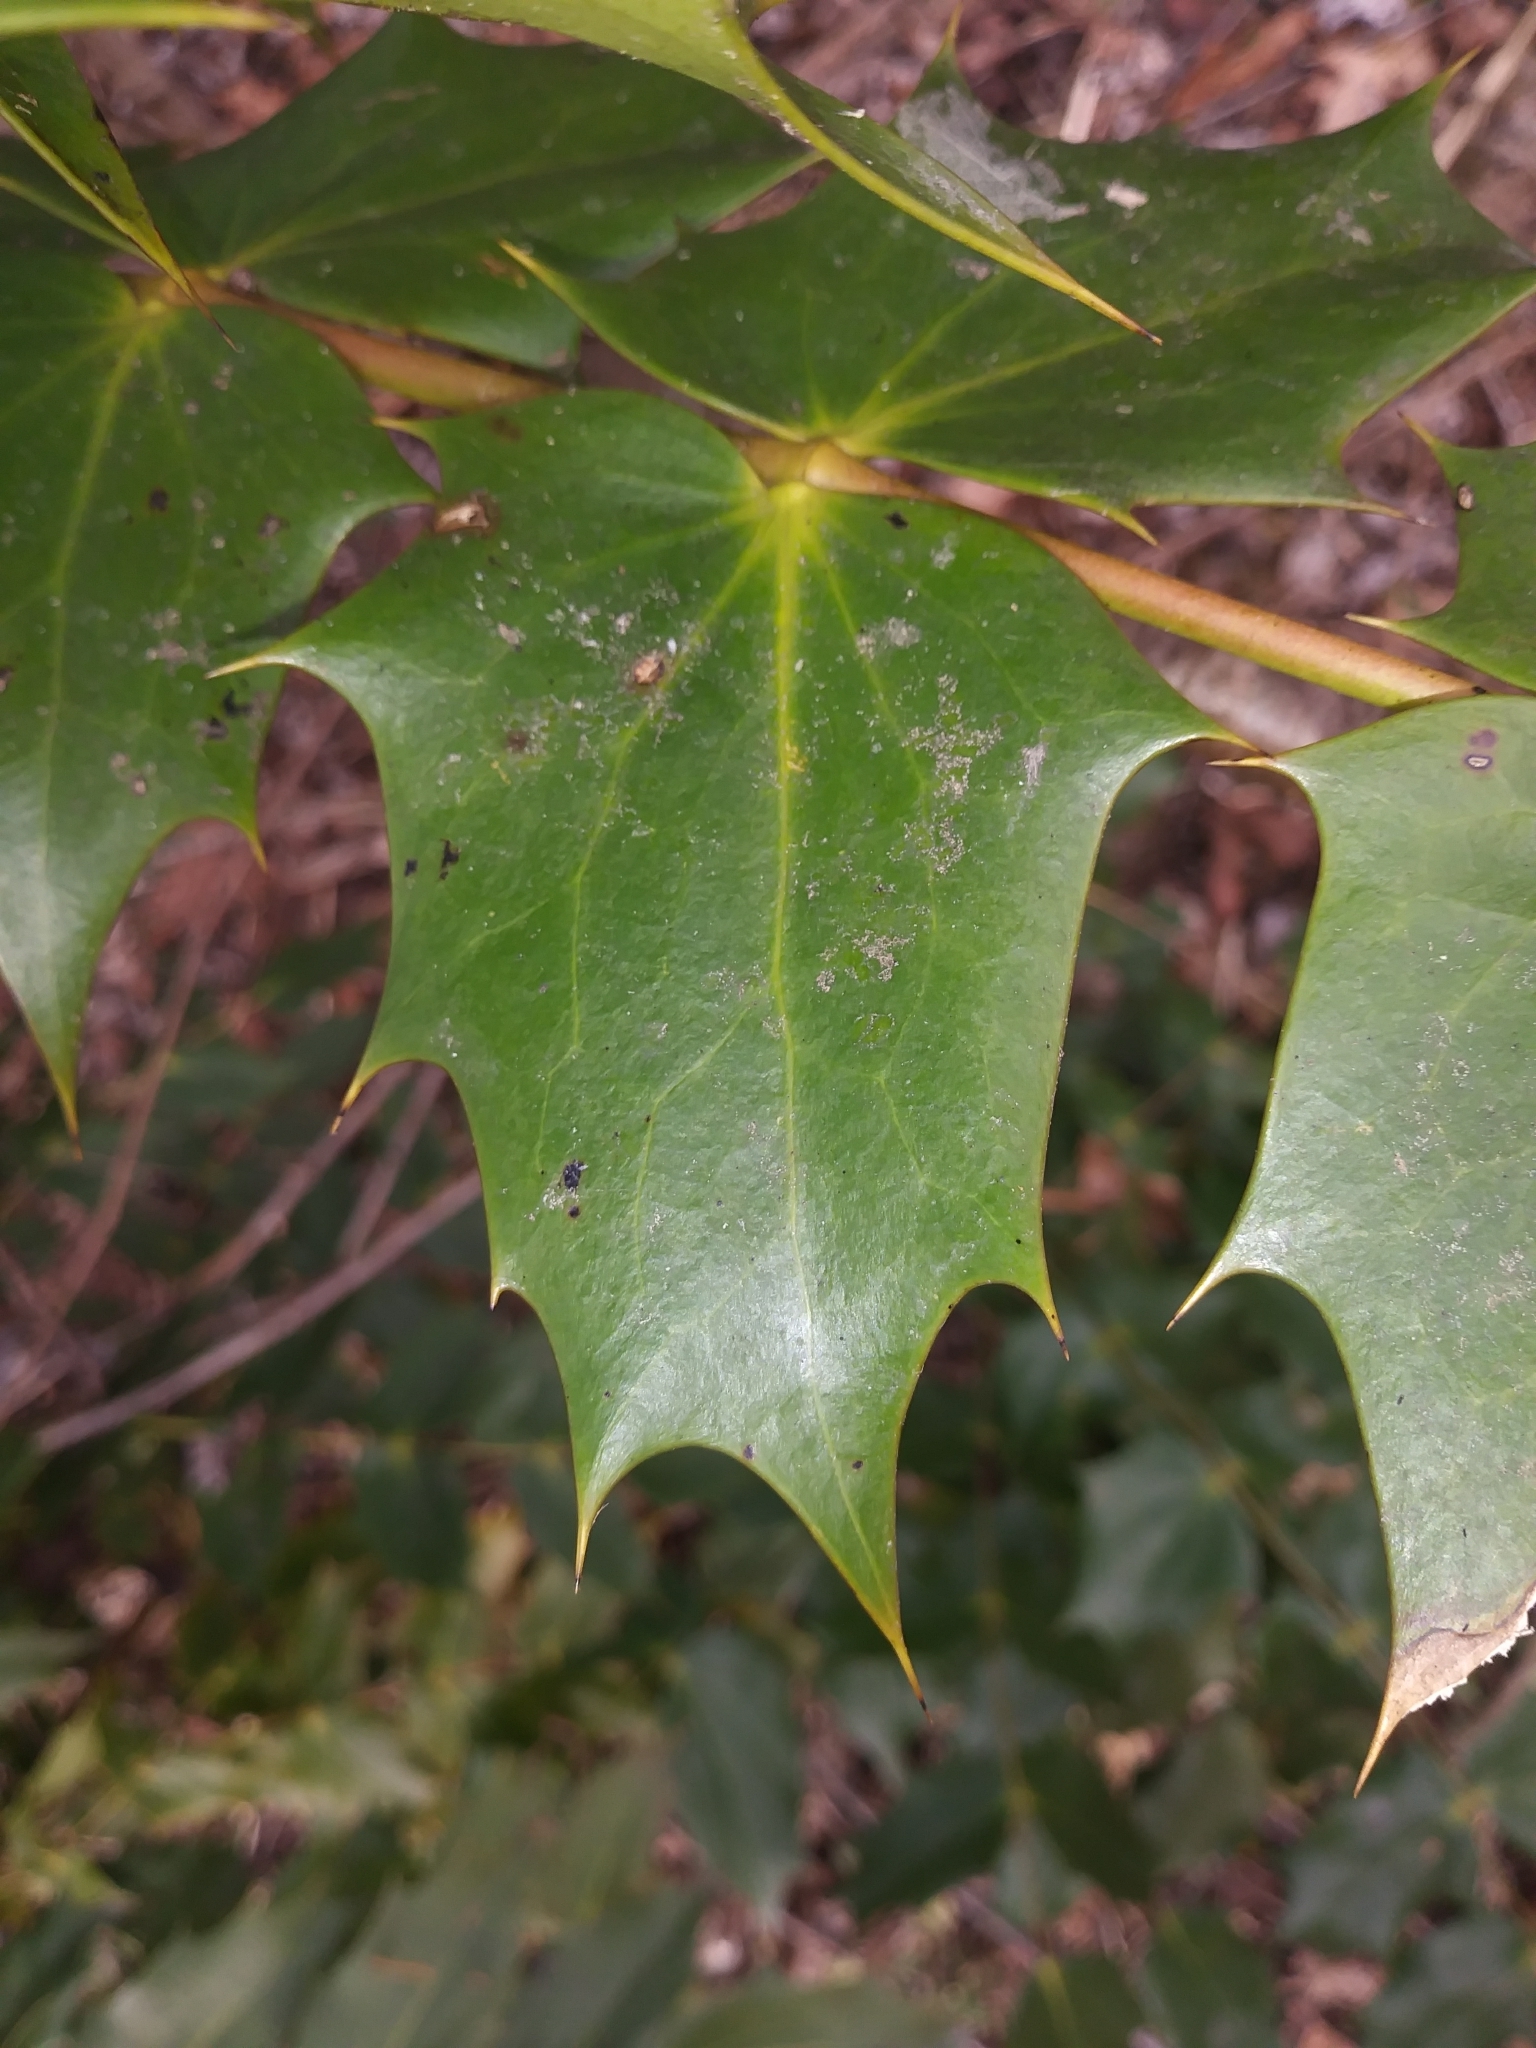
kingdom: Plantae
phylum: Tracheophyta
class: Magnoliopsida
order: Ranunculales
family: Berberidaceae
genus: Mahonia
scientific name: Mahonia bealei
